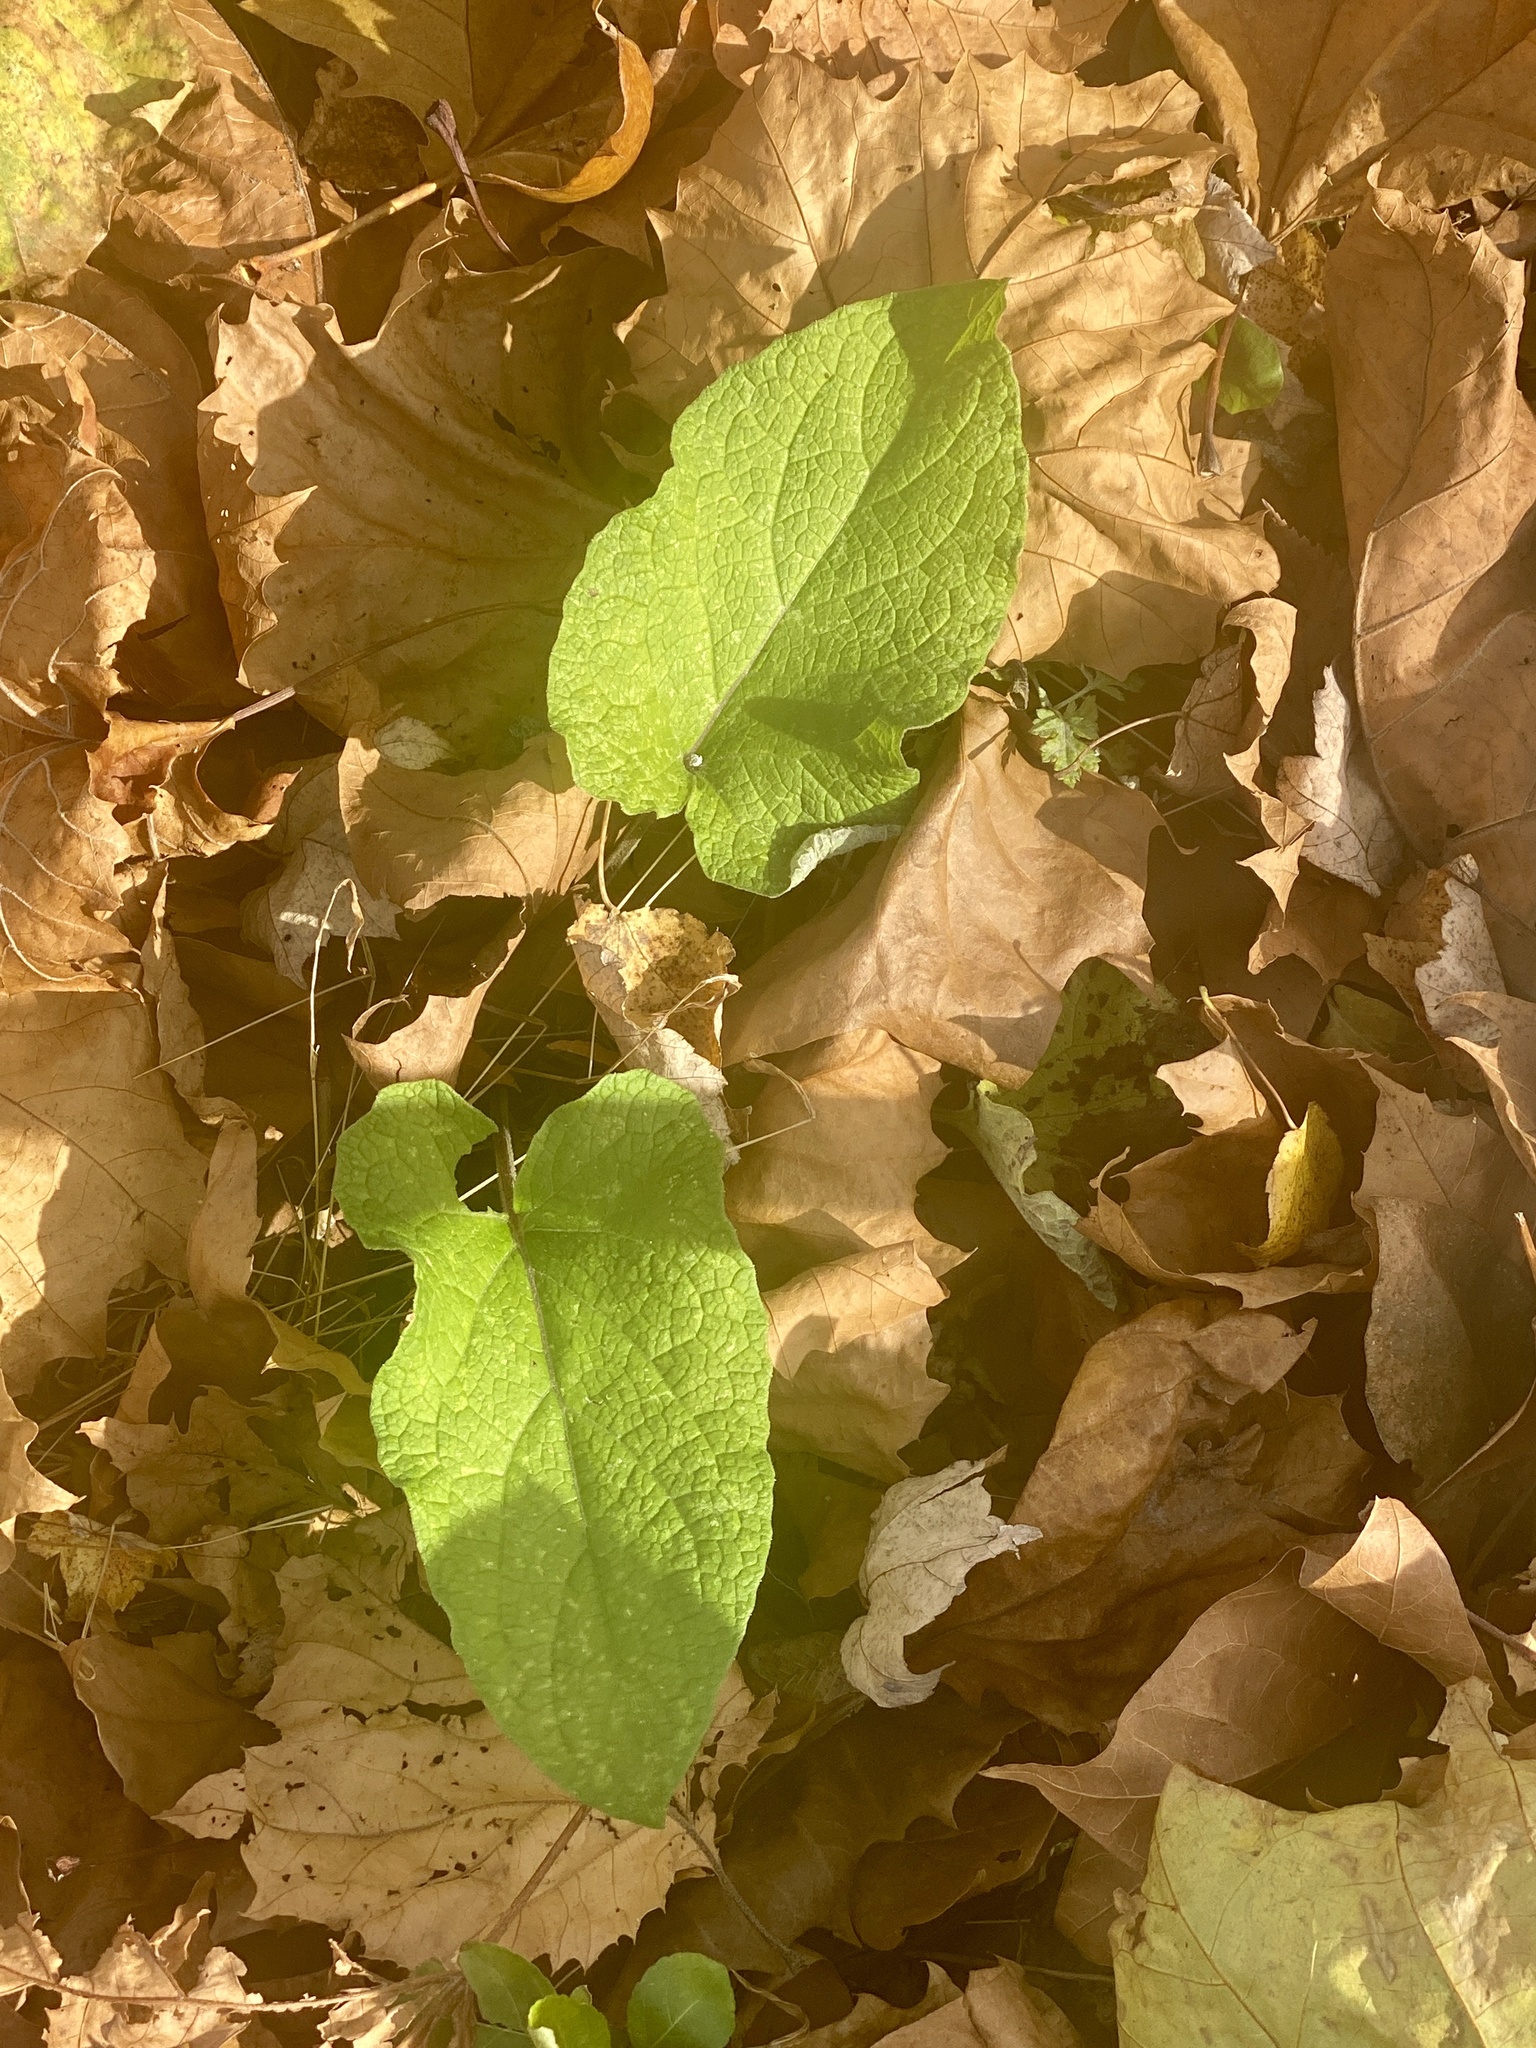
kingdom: Plantae
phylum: Tracheophyta
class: Magnoliopsida
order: Asterales
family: Asteraceae
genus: Arctium
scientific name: Arctium
